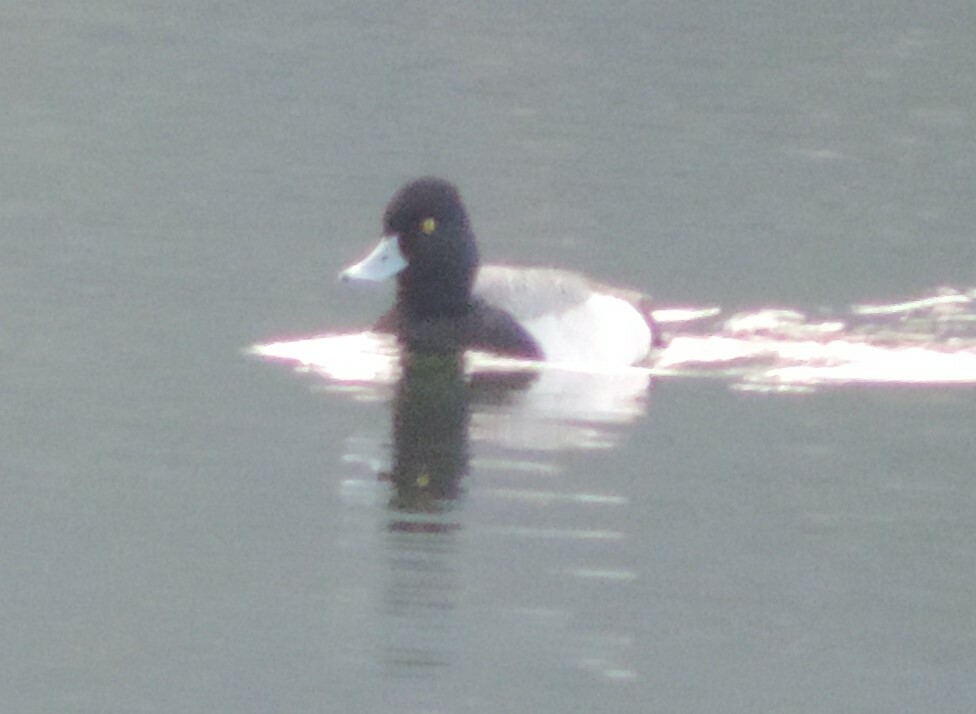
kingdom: Animalia
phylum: Chordata
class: Aves
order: Anseriformes
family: Anatidae
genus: Aythya
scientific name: Aythya affinis
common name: Lesser scaup
